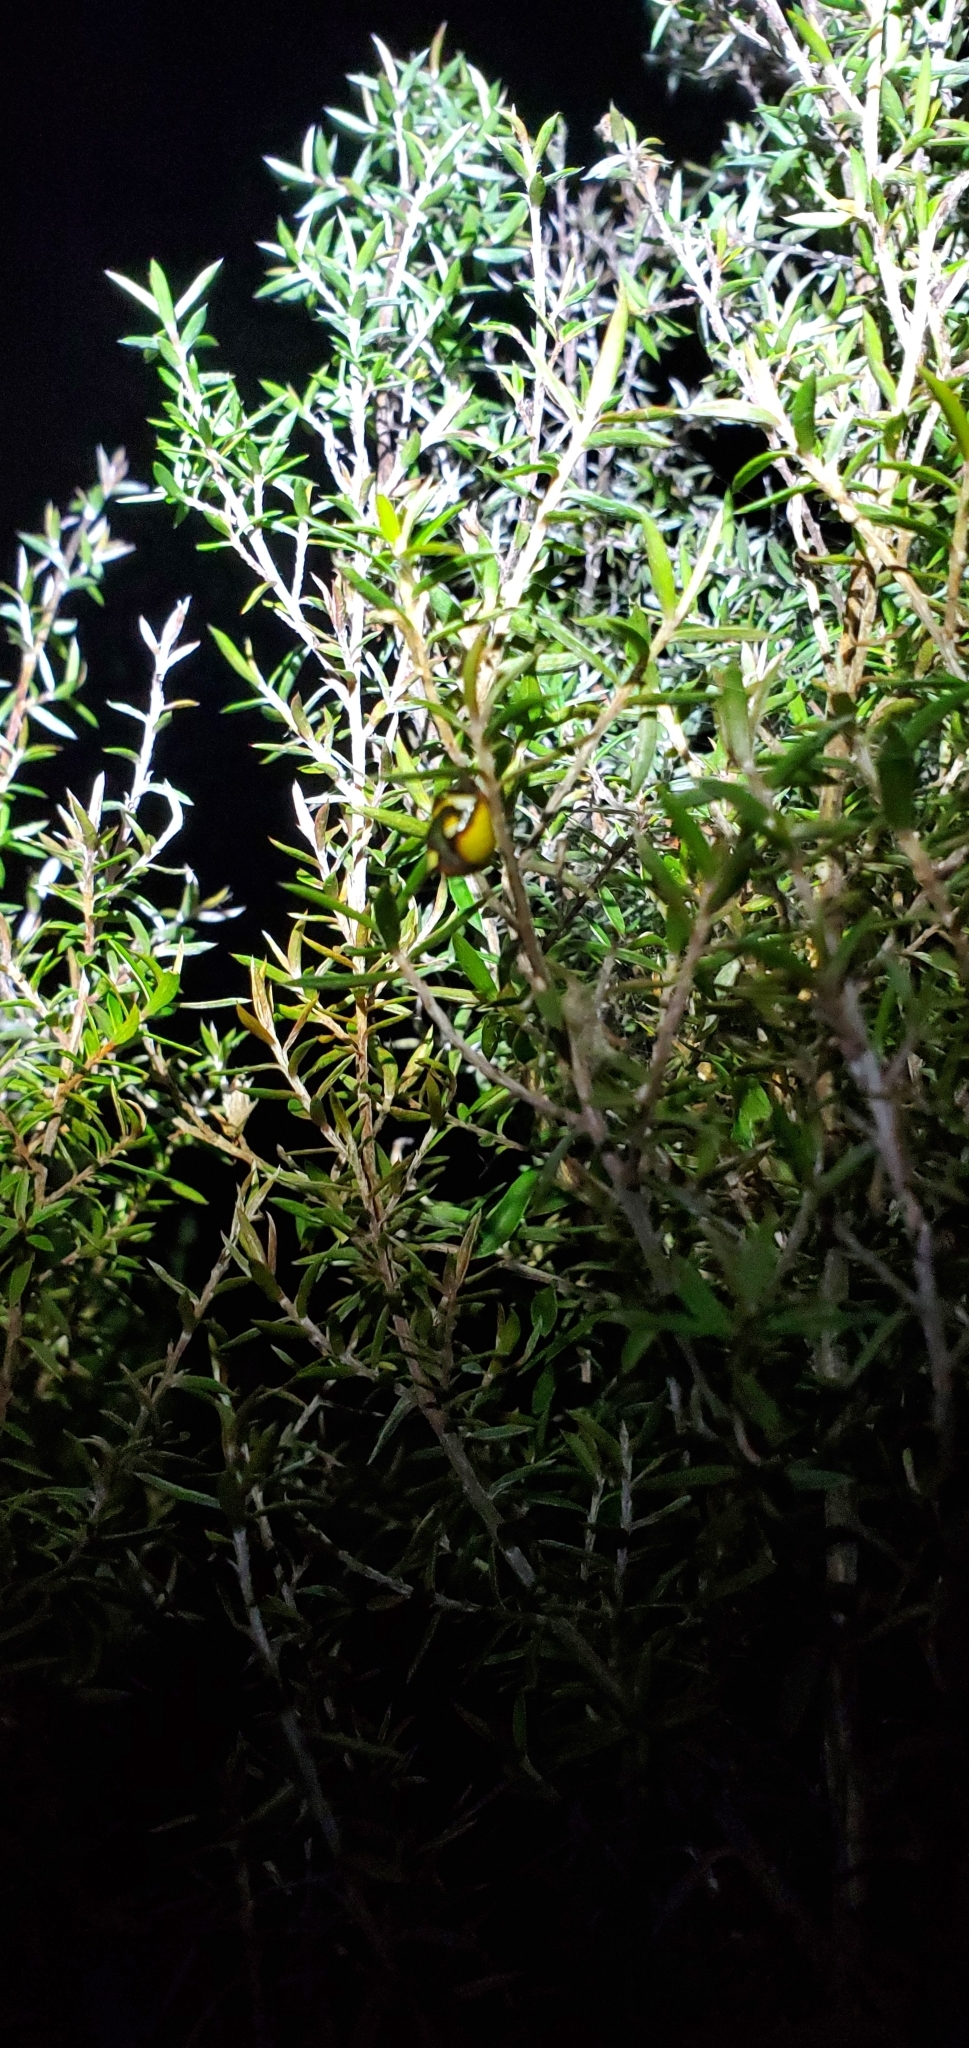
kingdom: Animalia
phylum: Arthropoda
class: Arachnida
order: Araneae
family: Araneidae
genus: Poecilopachys
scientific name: Poecilopachys australasia
